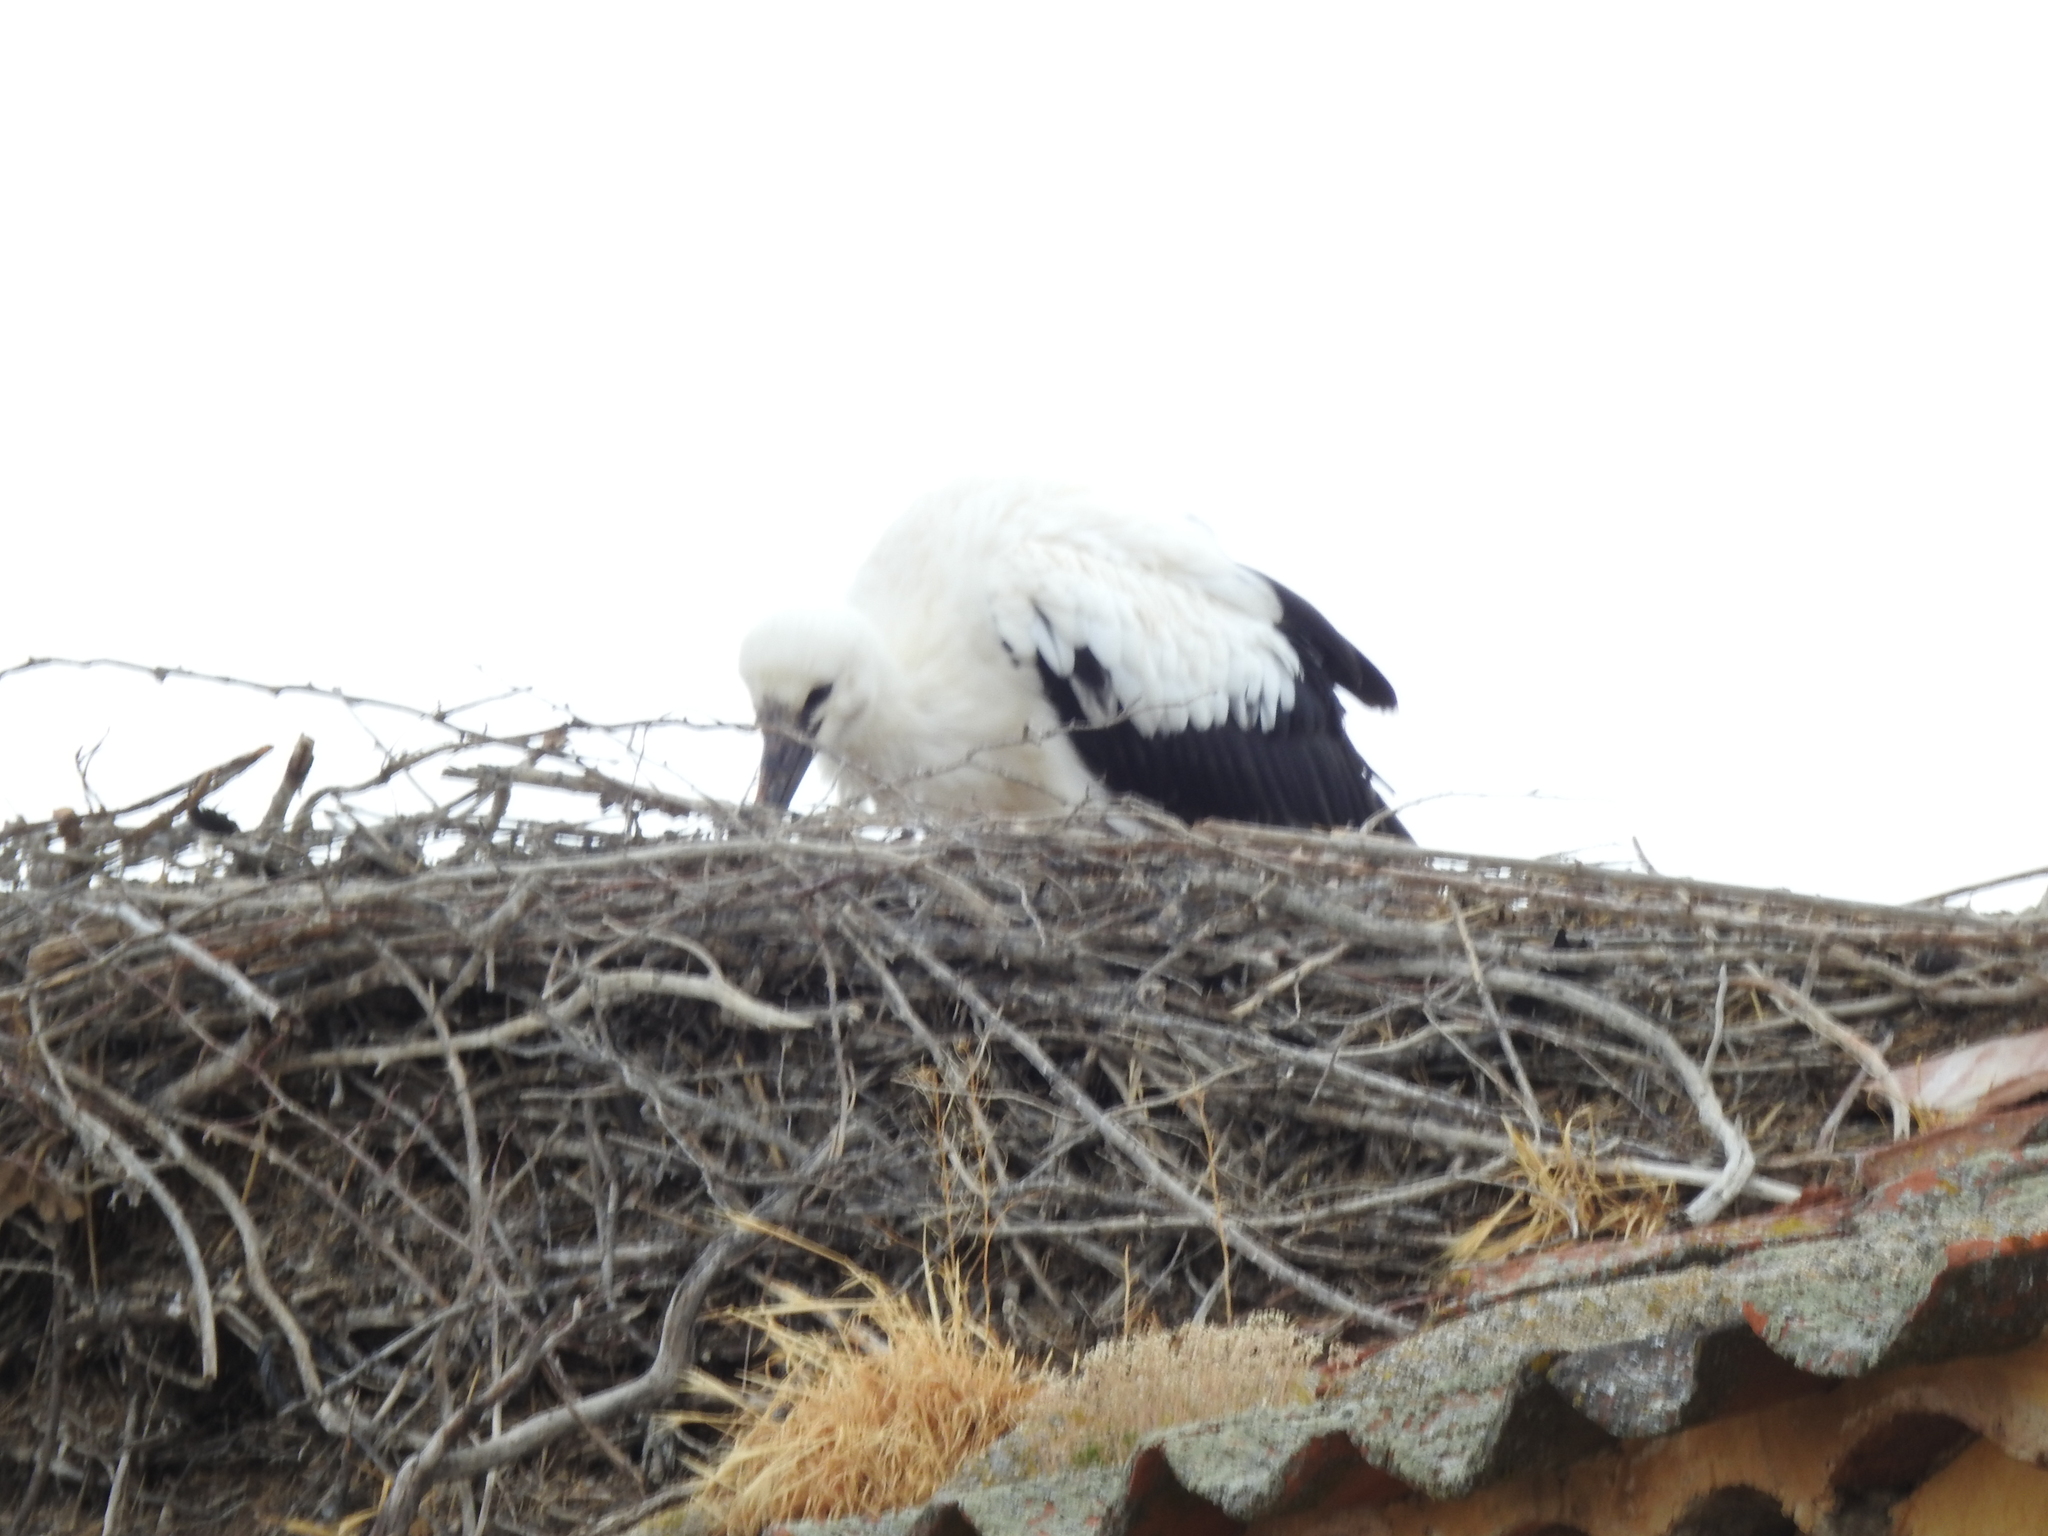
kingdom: Animalia
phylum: Chordata
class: Aves
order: Ciconiiformes
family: Ciconiidae
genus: Ciconia
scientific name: Ciconia ciconia
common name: White stork
